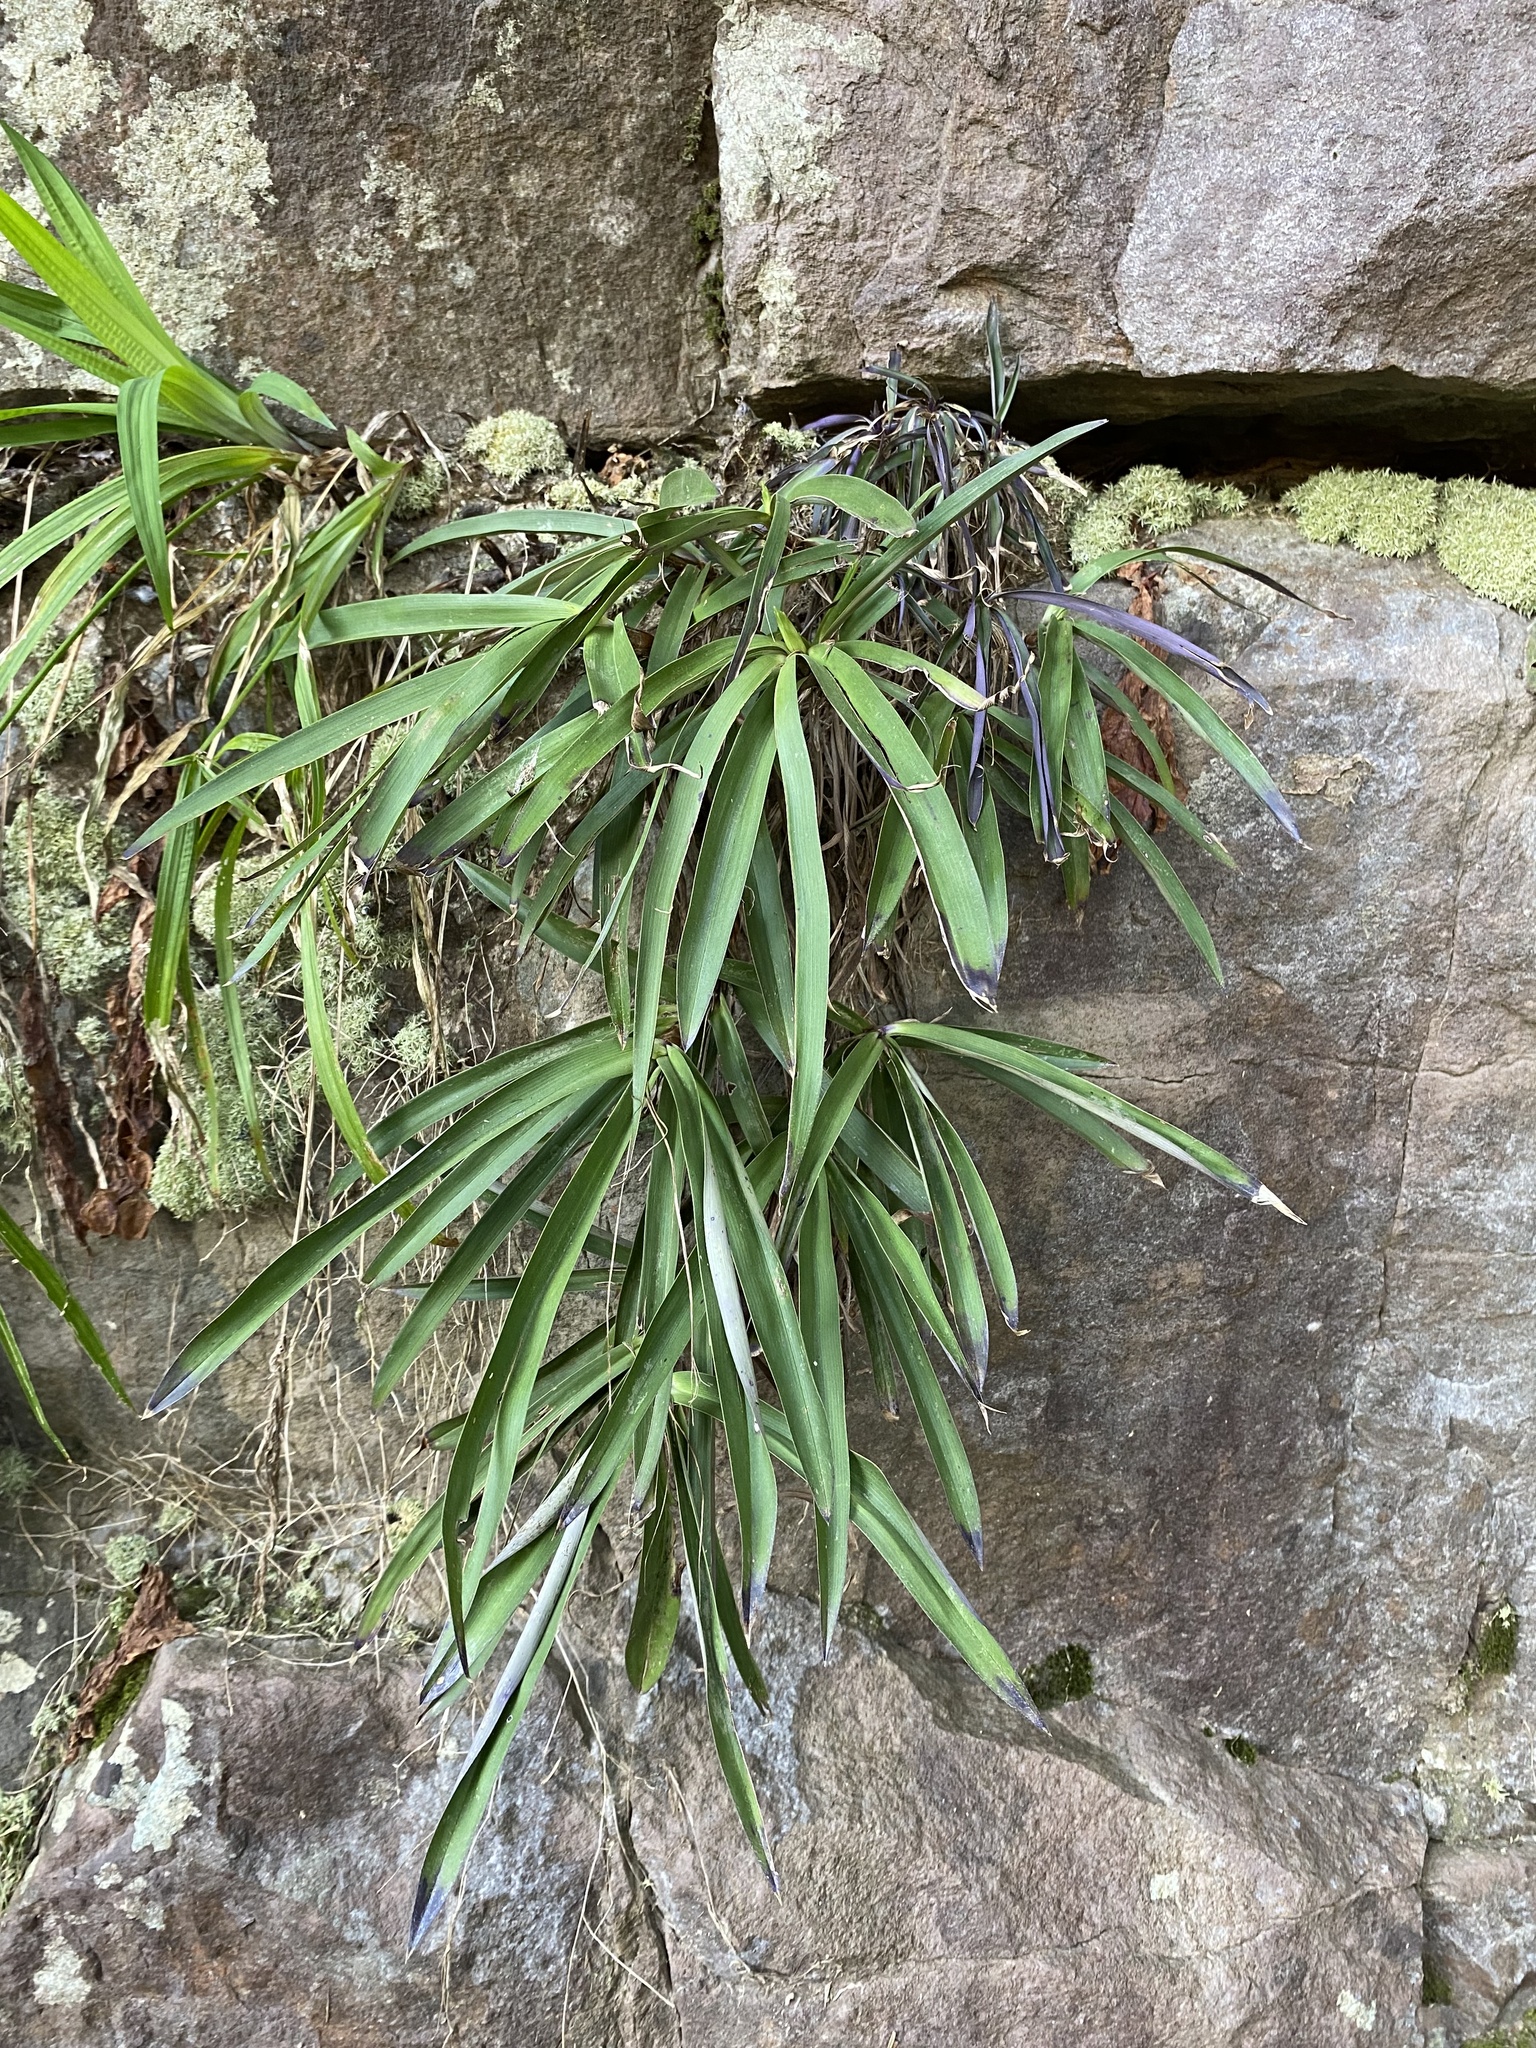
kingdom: Plantae
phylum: Tracheophyta
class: Liliopsida
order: Pandanales
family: Velloziaceae
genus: Xerophyta
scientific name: Xerophyta elegans
